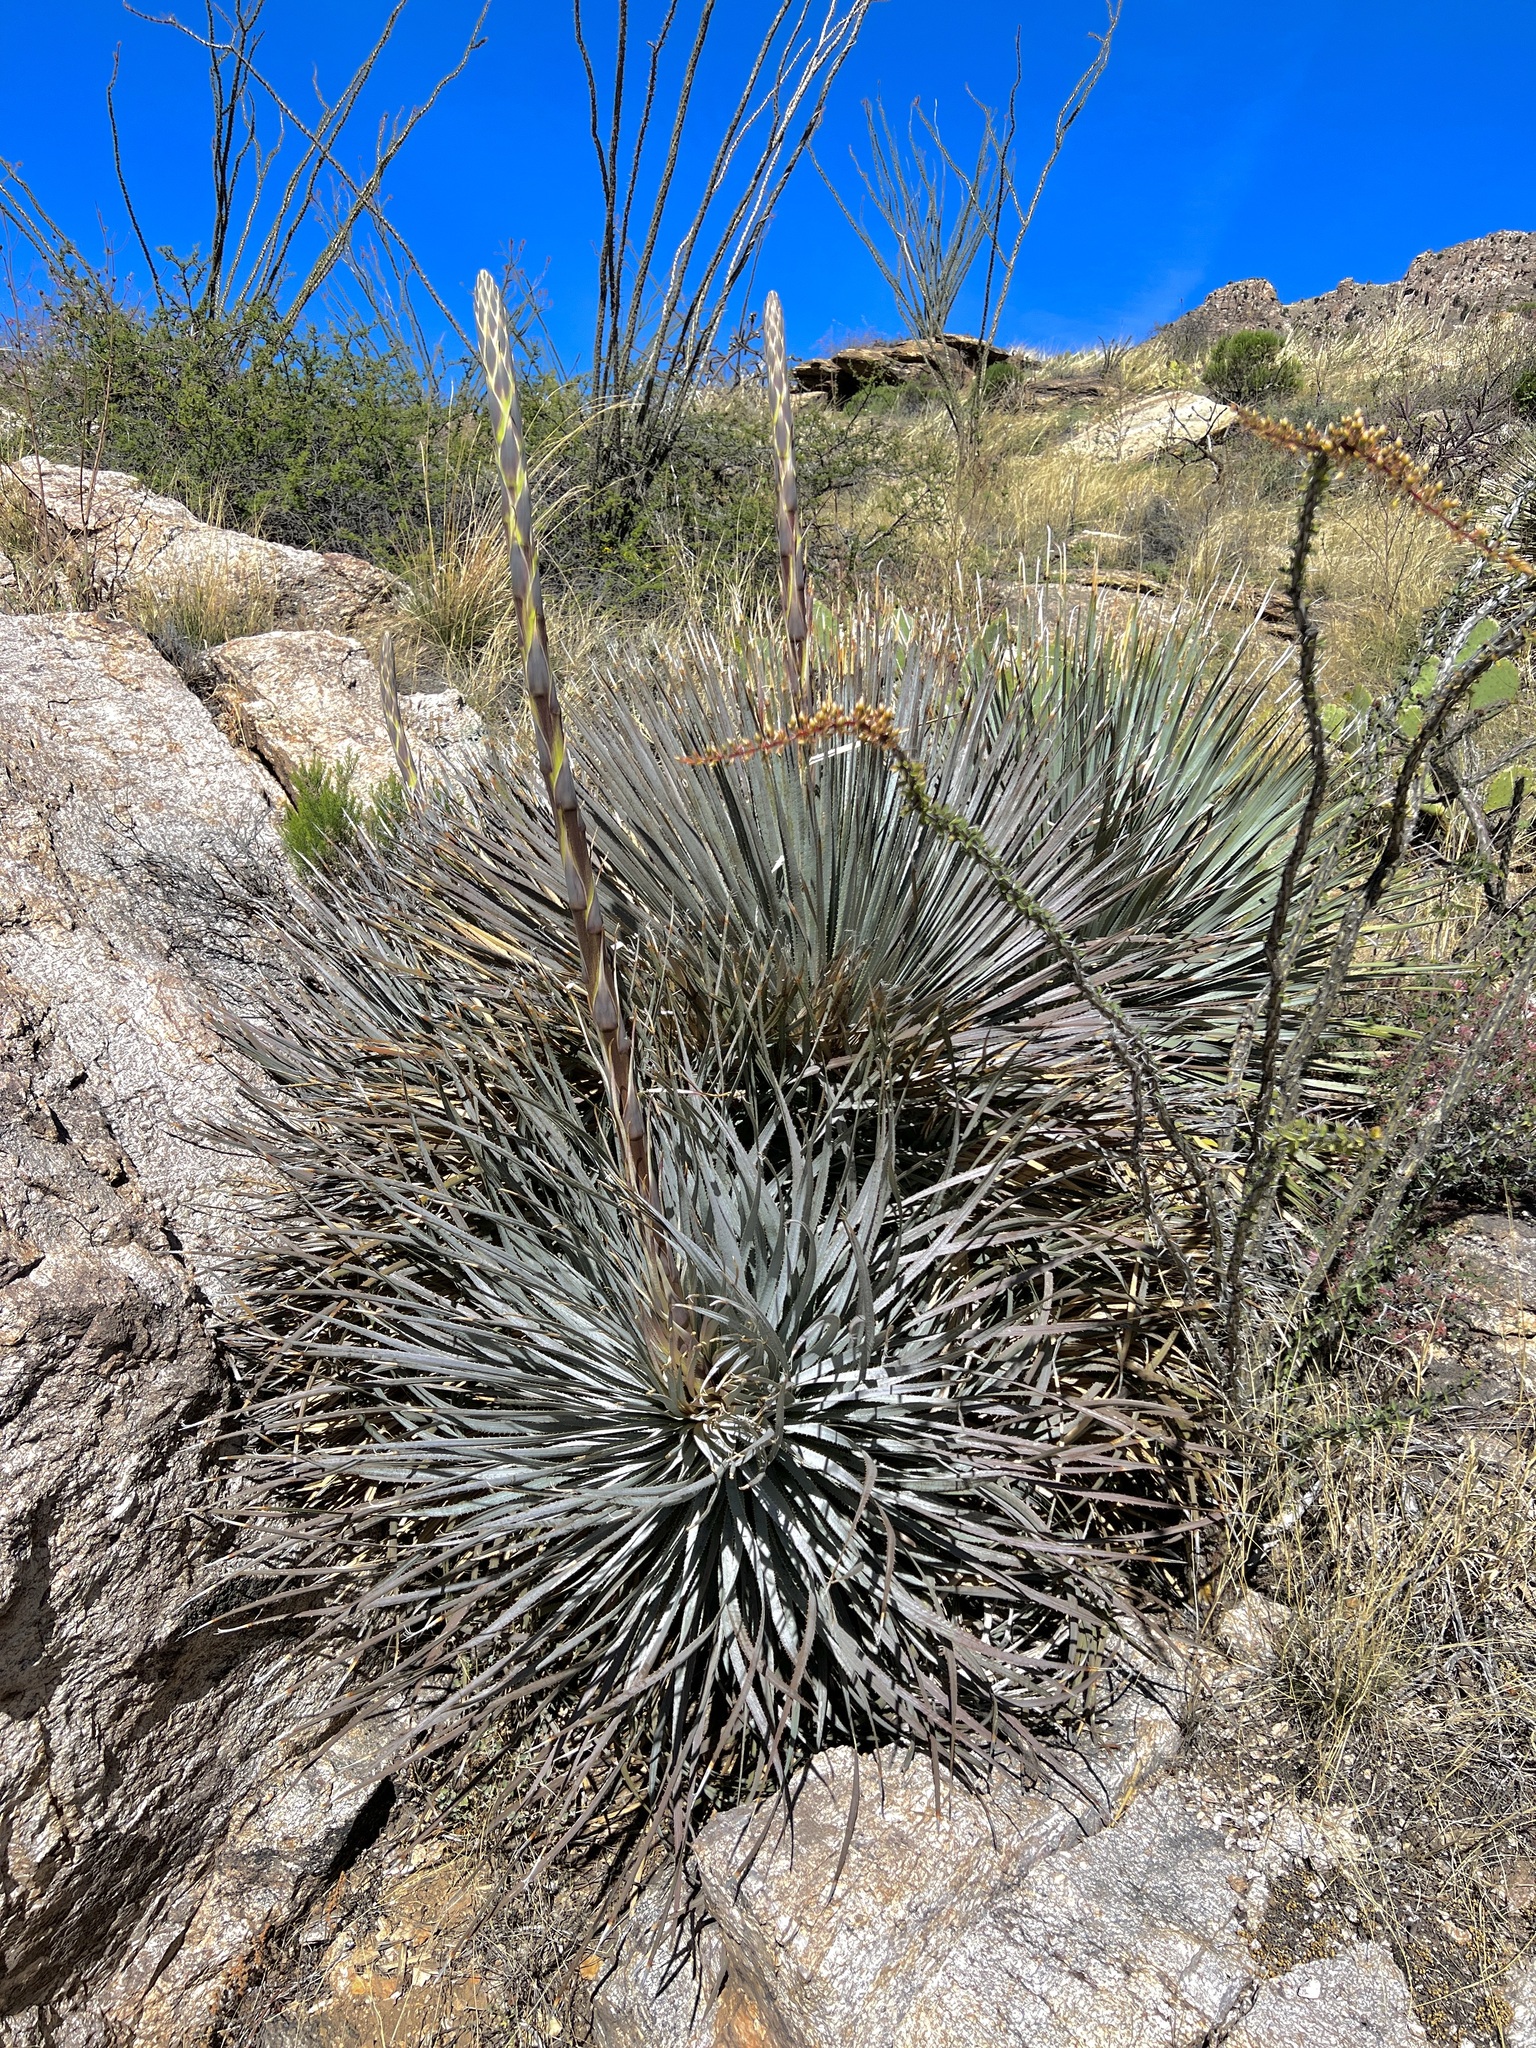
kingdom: Plantae
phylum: Tracheophyta
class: Liliopsida
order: Asparagales
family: Asparagaceae
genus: Dasylirion
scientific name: Dasylirion wheeleri
